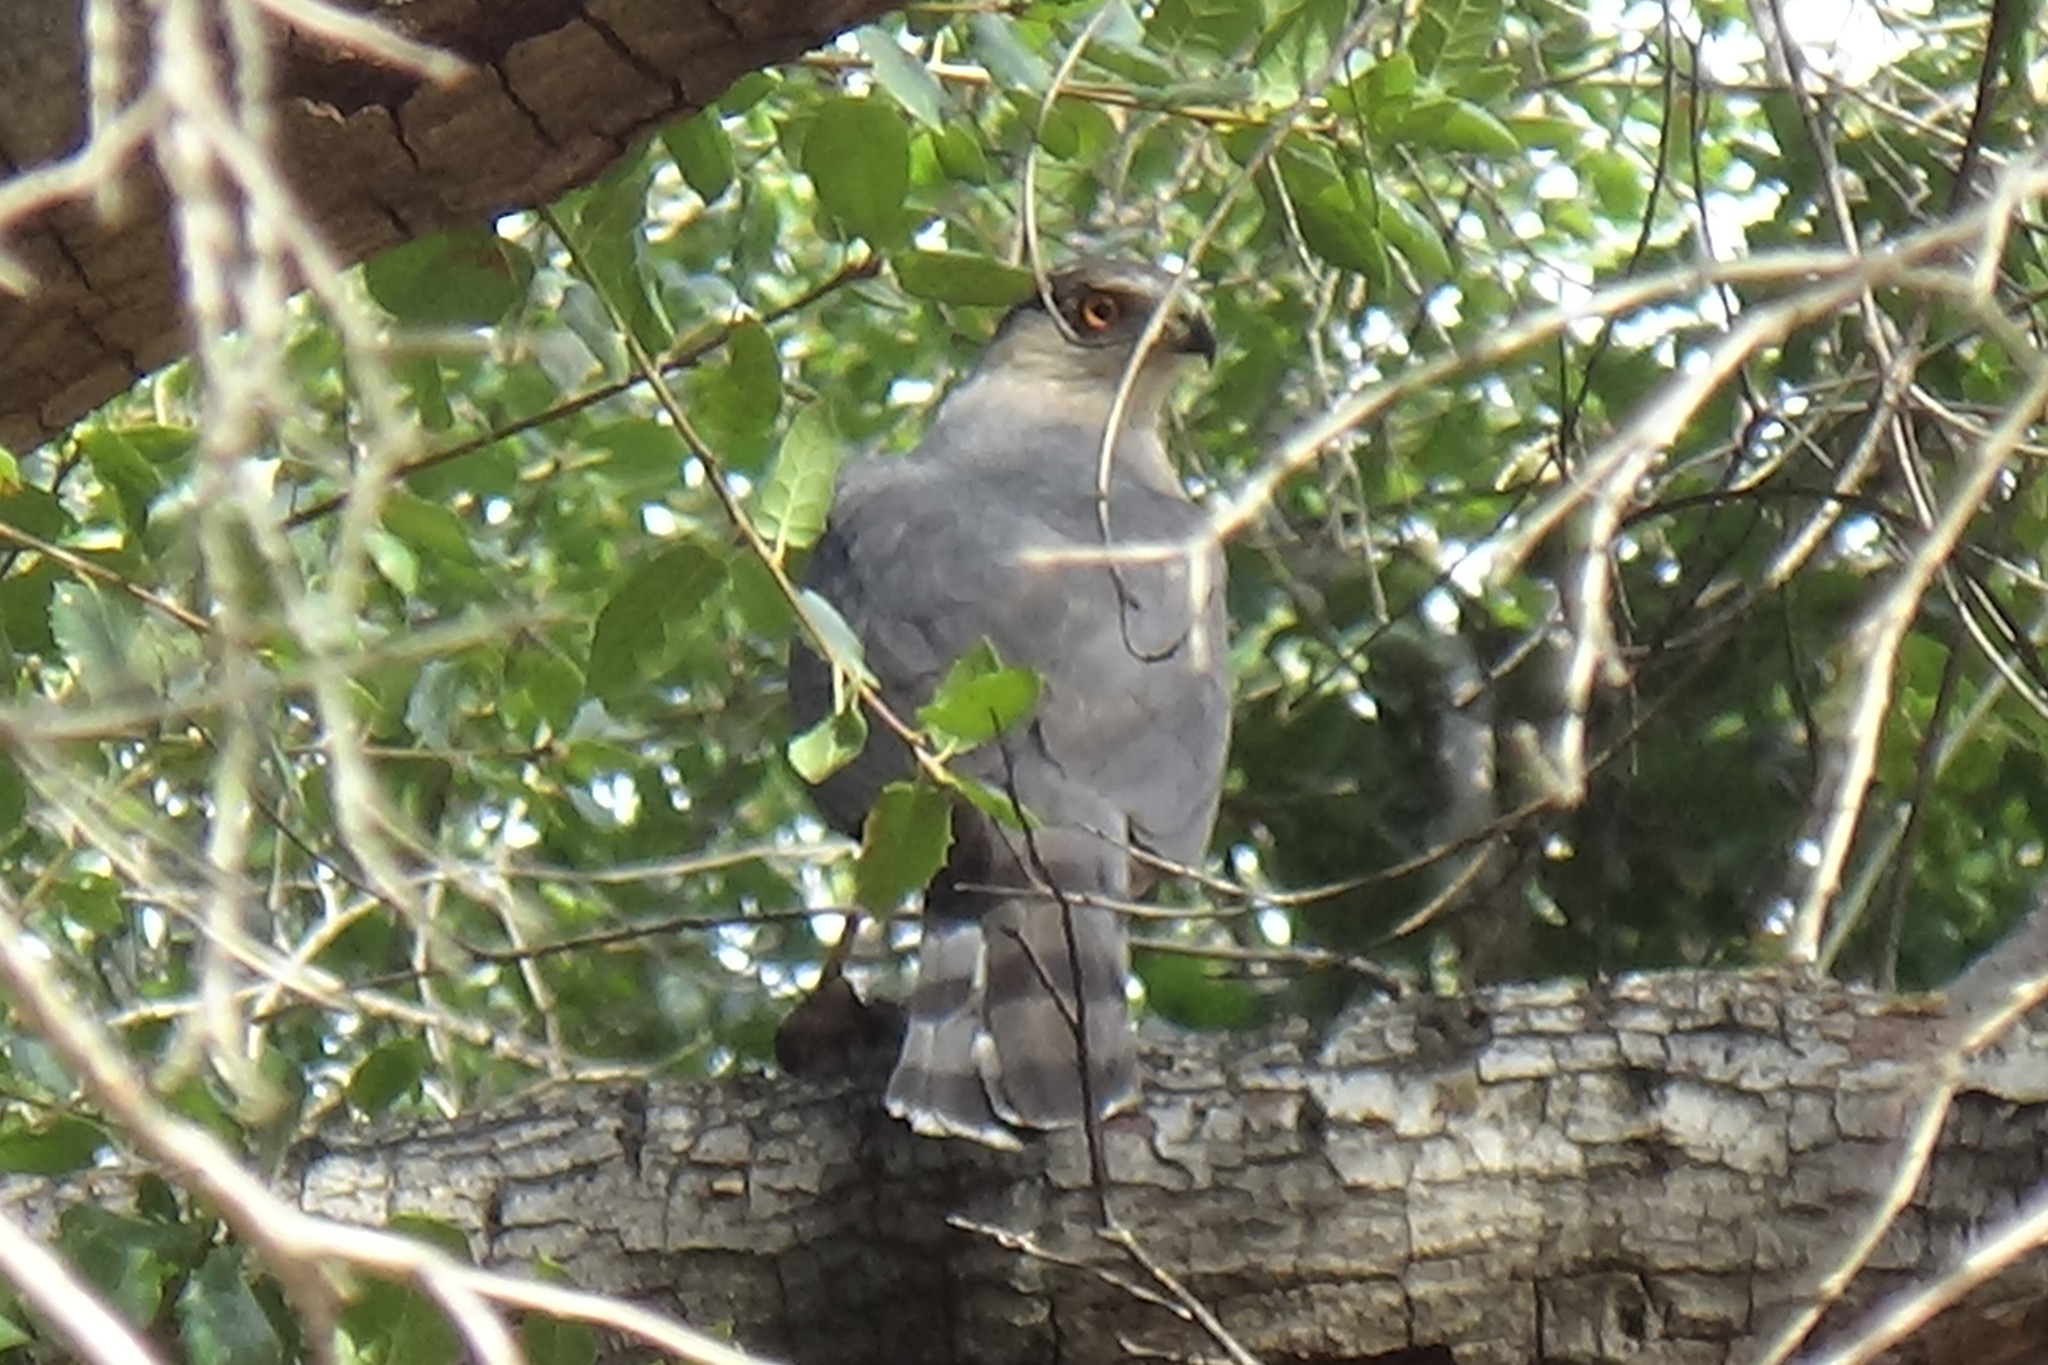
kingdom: Animalia
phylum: Chordata
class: Aves
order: Accipitriformes
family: Accipitridae
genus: Accipiter
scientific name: Accipiter cooperii
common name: Cooper's hawk
